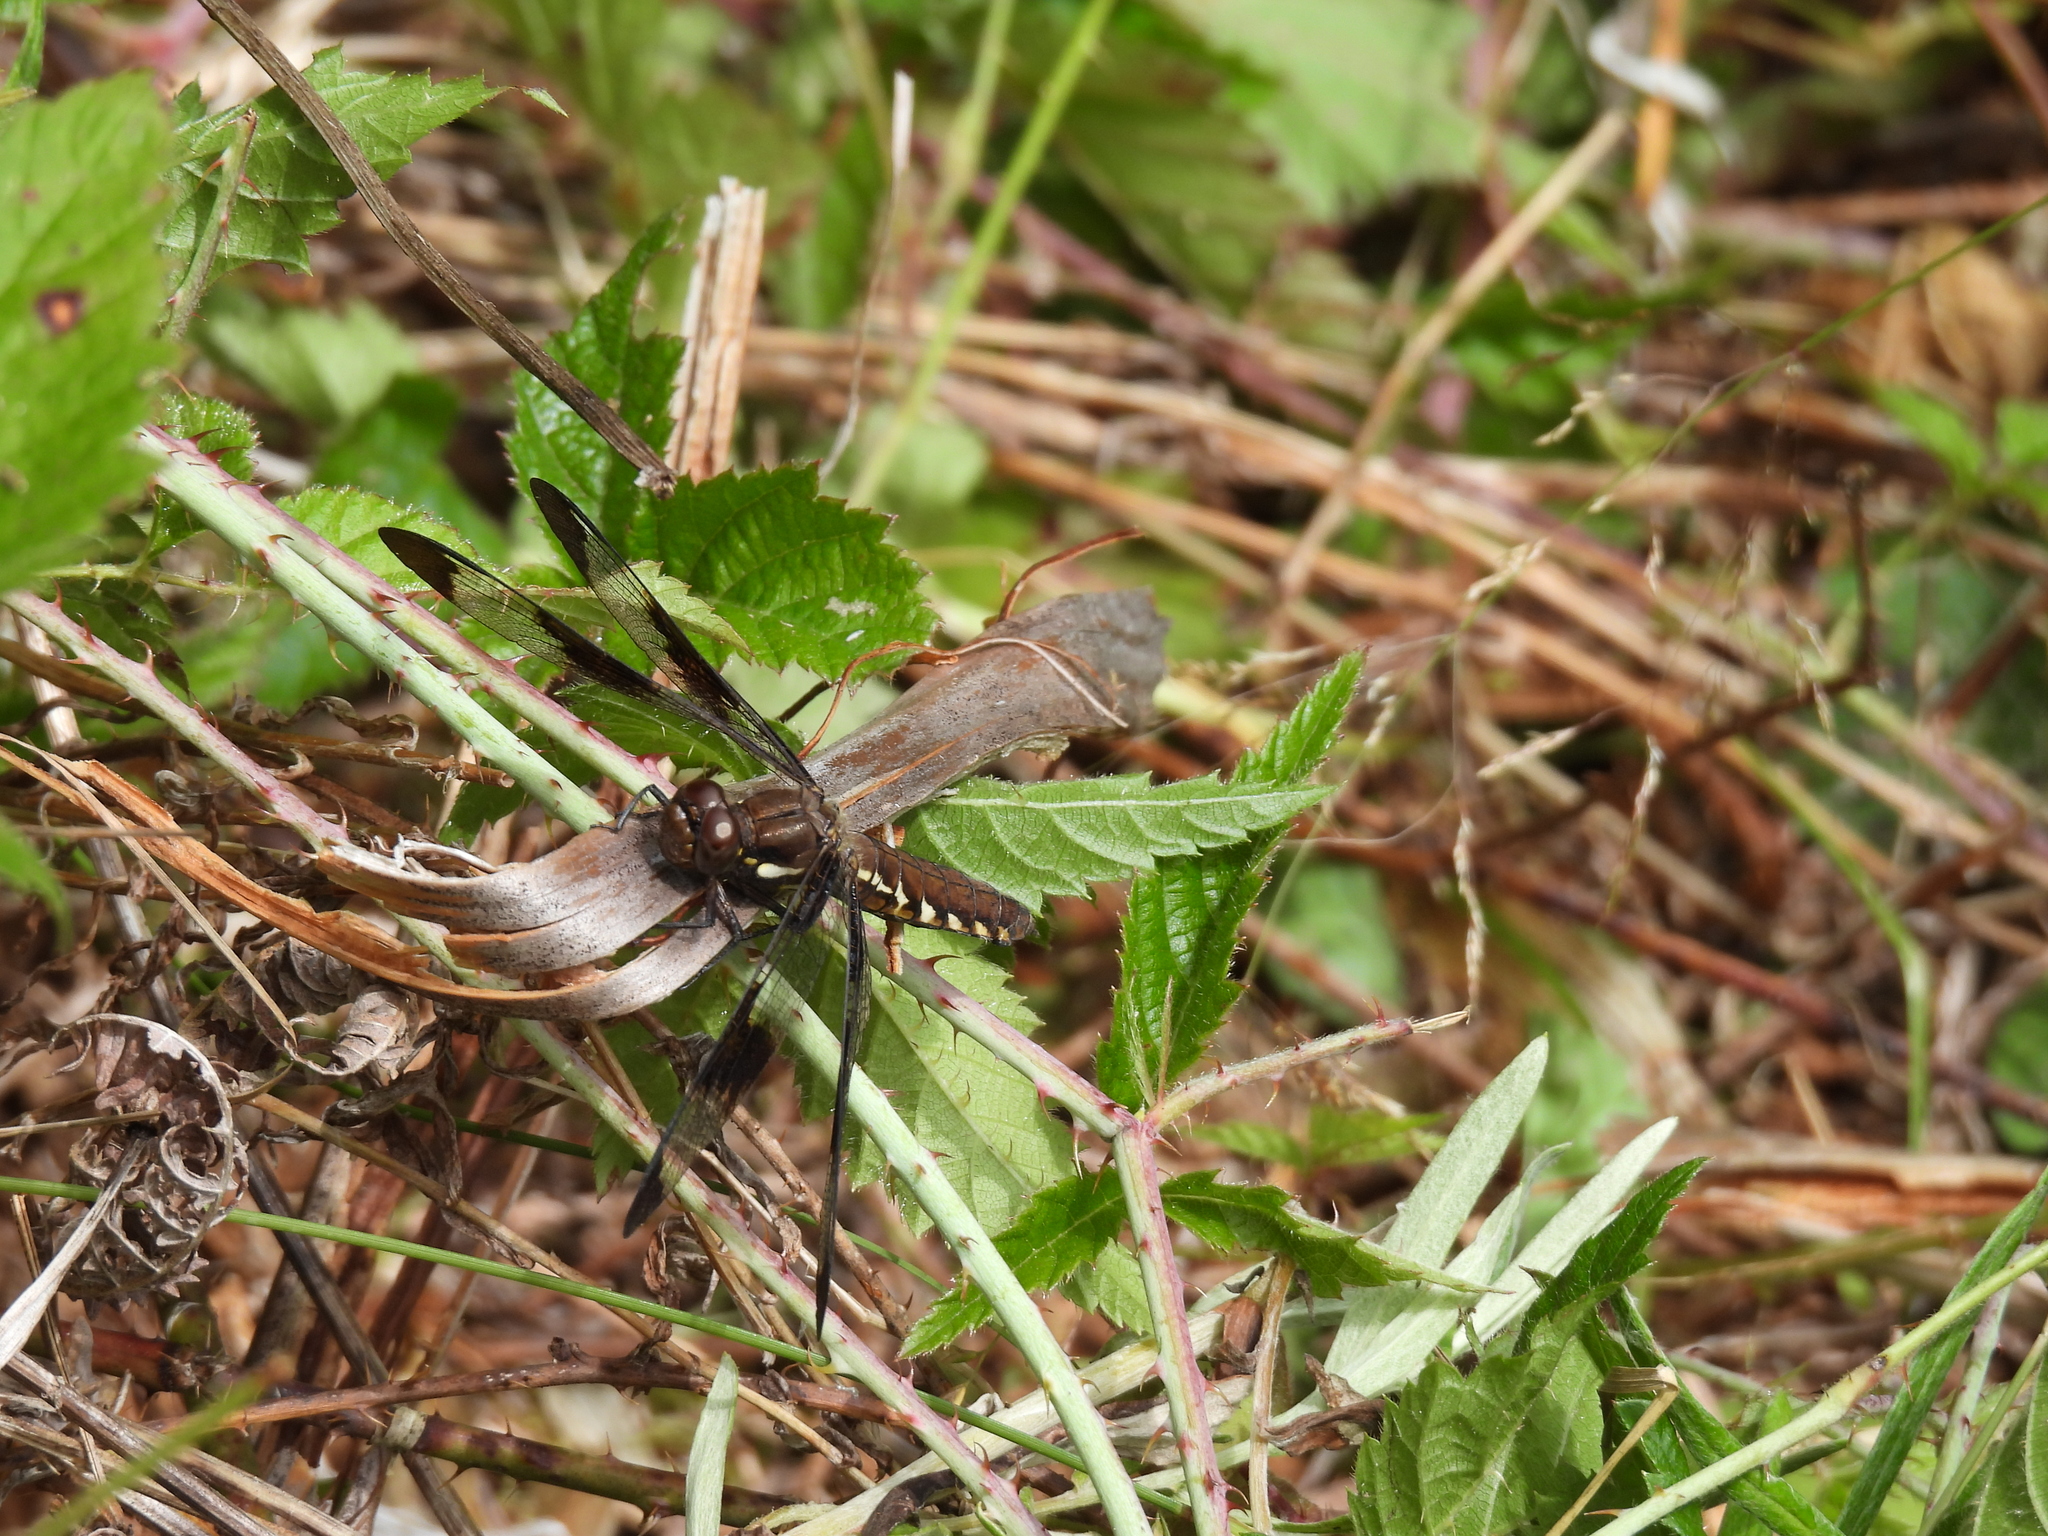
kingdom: Animalia
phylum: Arthropoda
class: Insecta
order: Odonata
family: Libellulidae
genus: Plathemis
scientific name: Plathemis lydia
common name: Common whitetail
